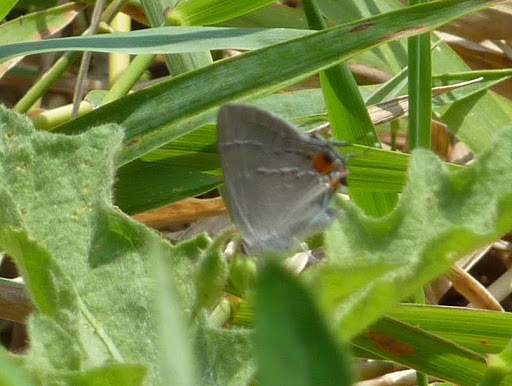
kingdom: Animalia
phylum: Arthropoda
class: Insecta
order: Lepidoptera
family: Lycaenidae
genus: Strymon
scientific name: Strymon melinus
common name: Gray hairstreak
